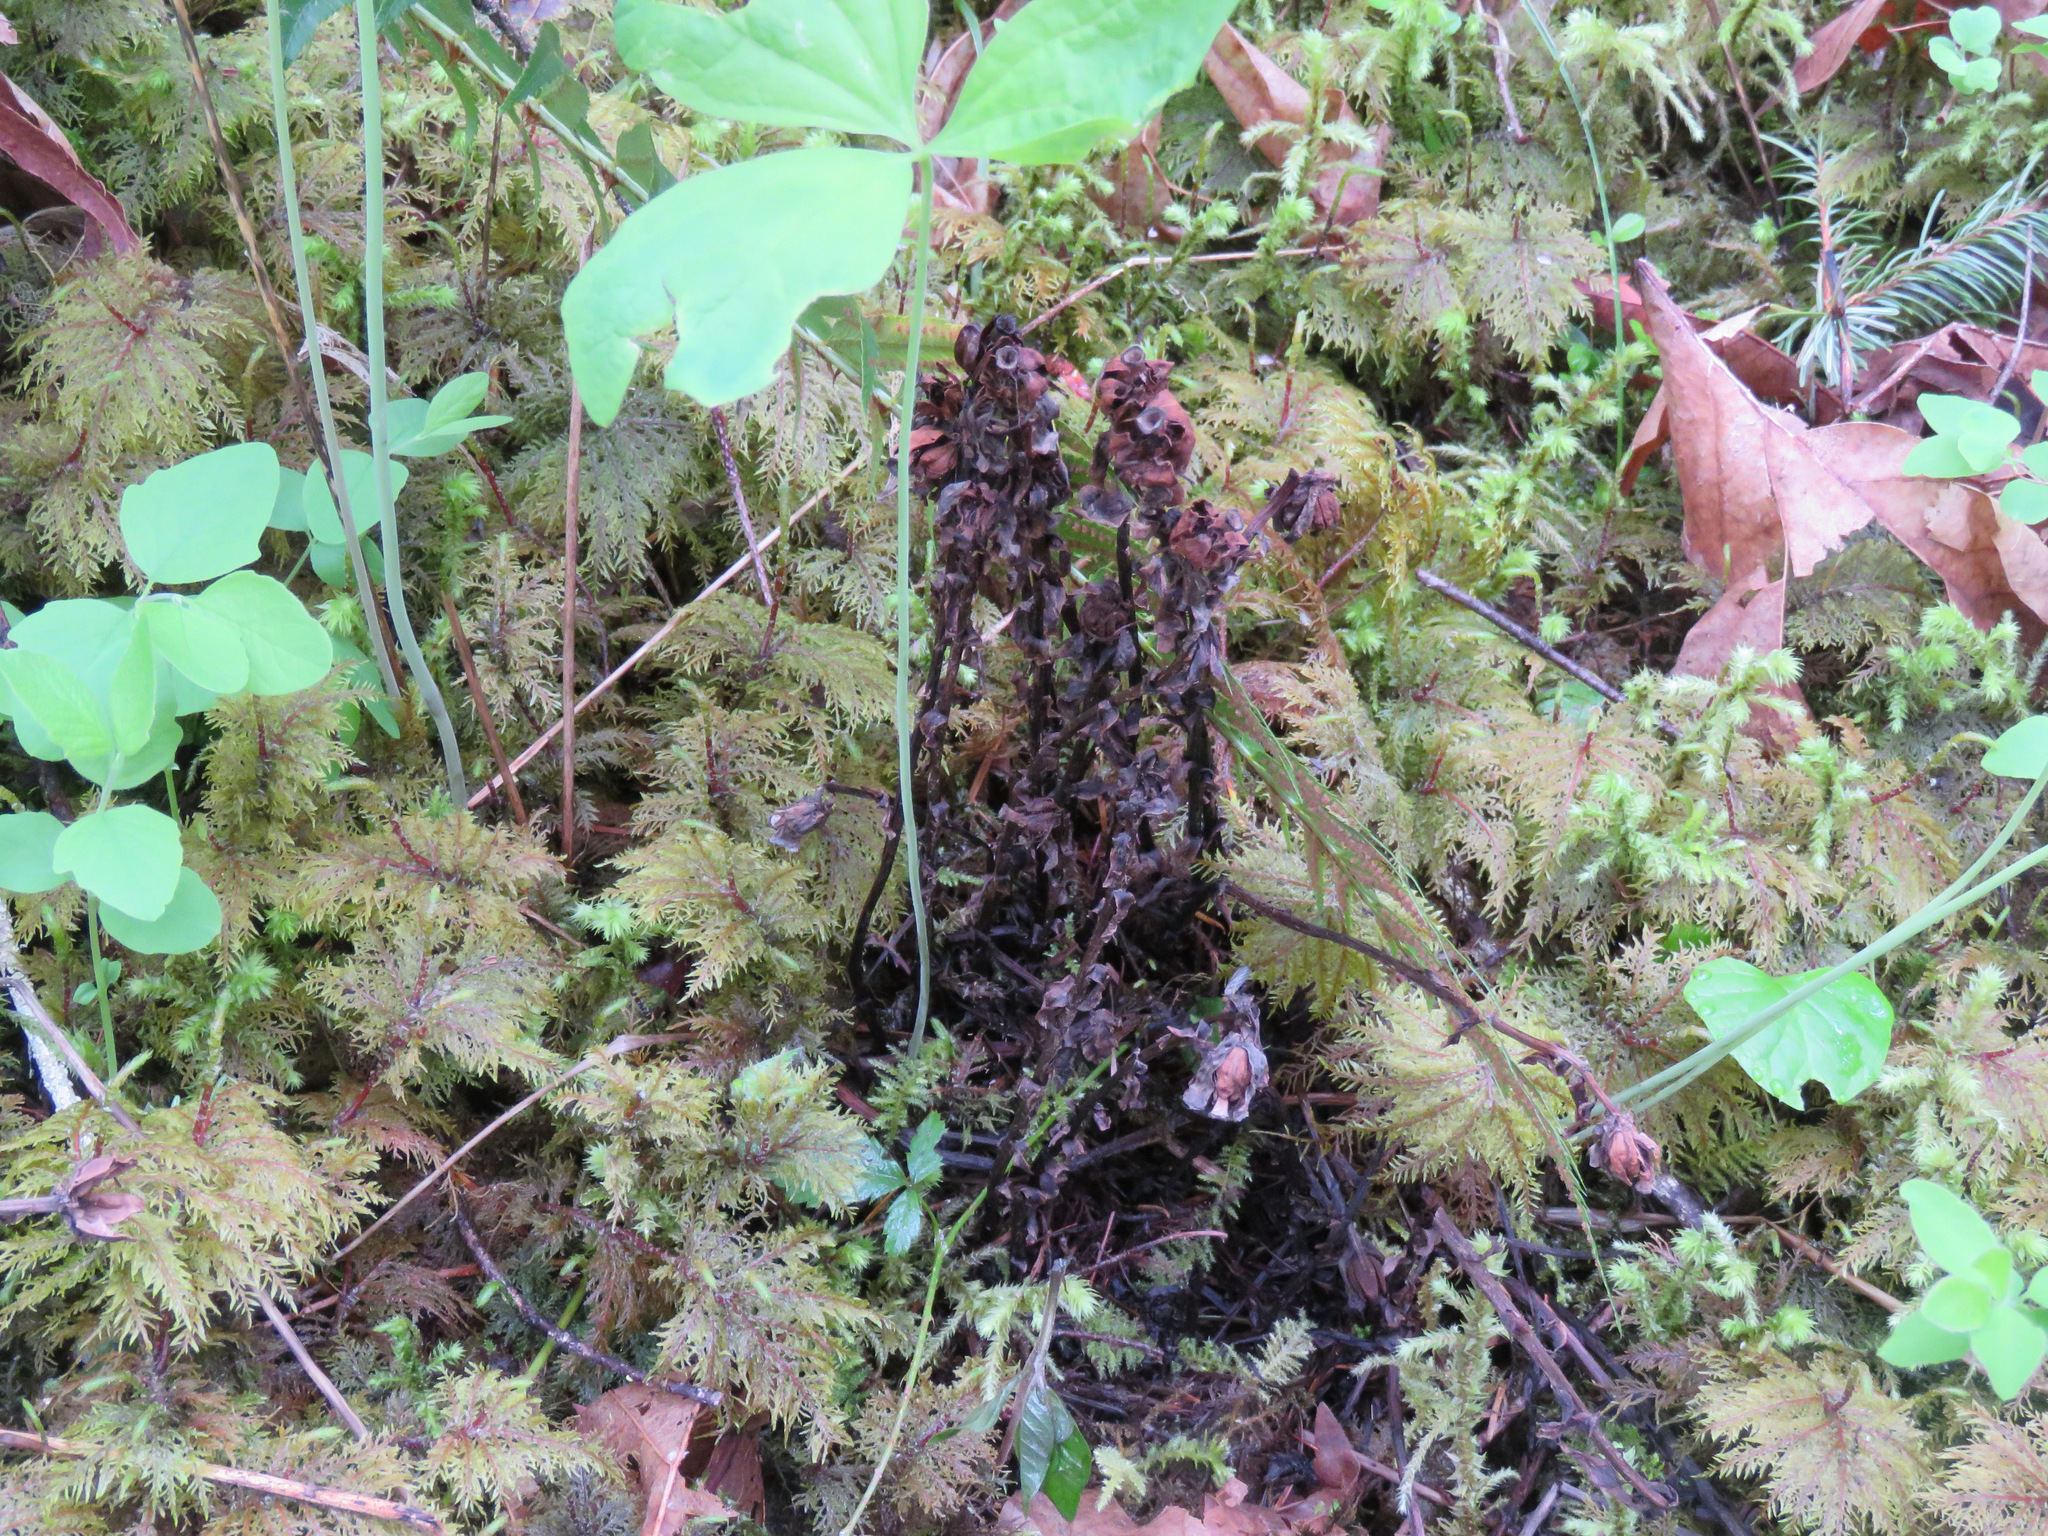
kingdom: Plantae
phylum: Tracheophyta
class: Magnoliopsida
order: Ericales
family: Ericaceae
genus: Monotropa
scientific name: Monotropa uniflora
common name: Convulsion root
